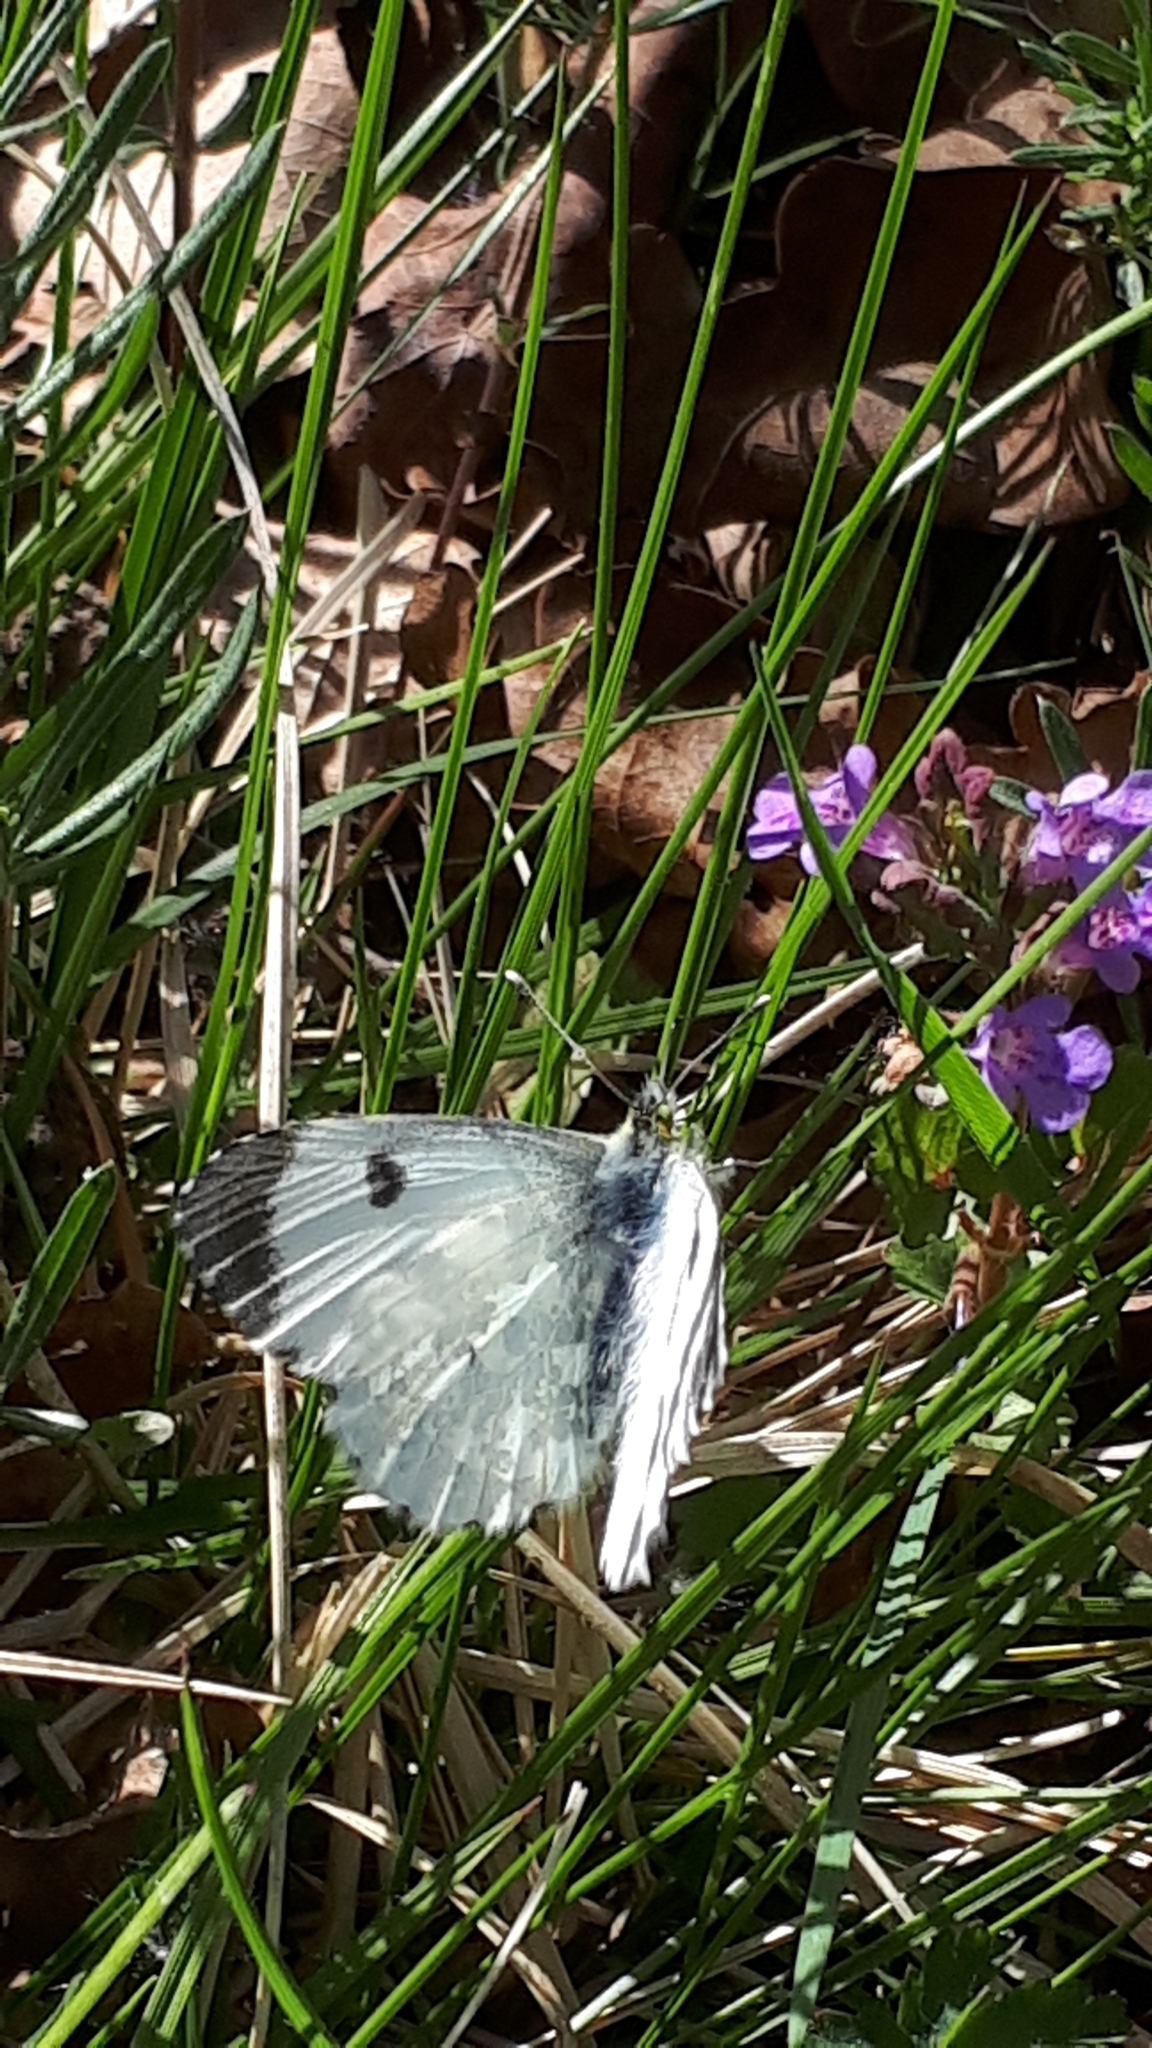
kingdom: Animalia
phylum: Arthropoda
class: Insecta
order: Lepidoptera
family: Pieridae
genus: Anthocharis
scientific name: Anthocharis cardamines
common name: Orange-tip
